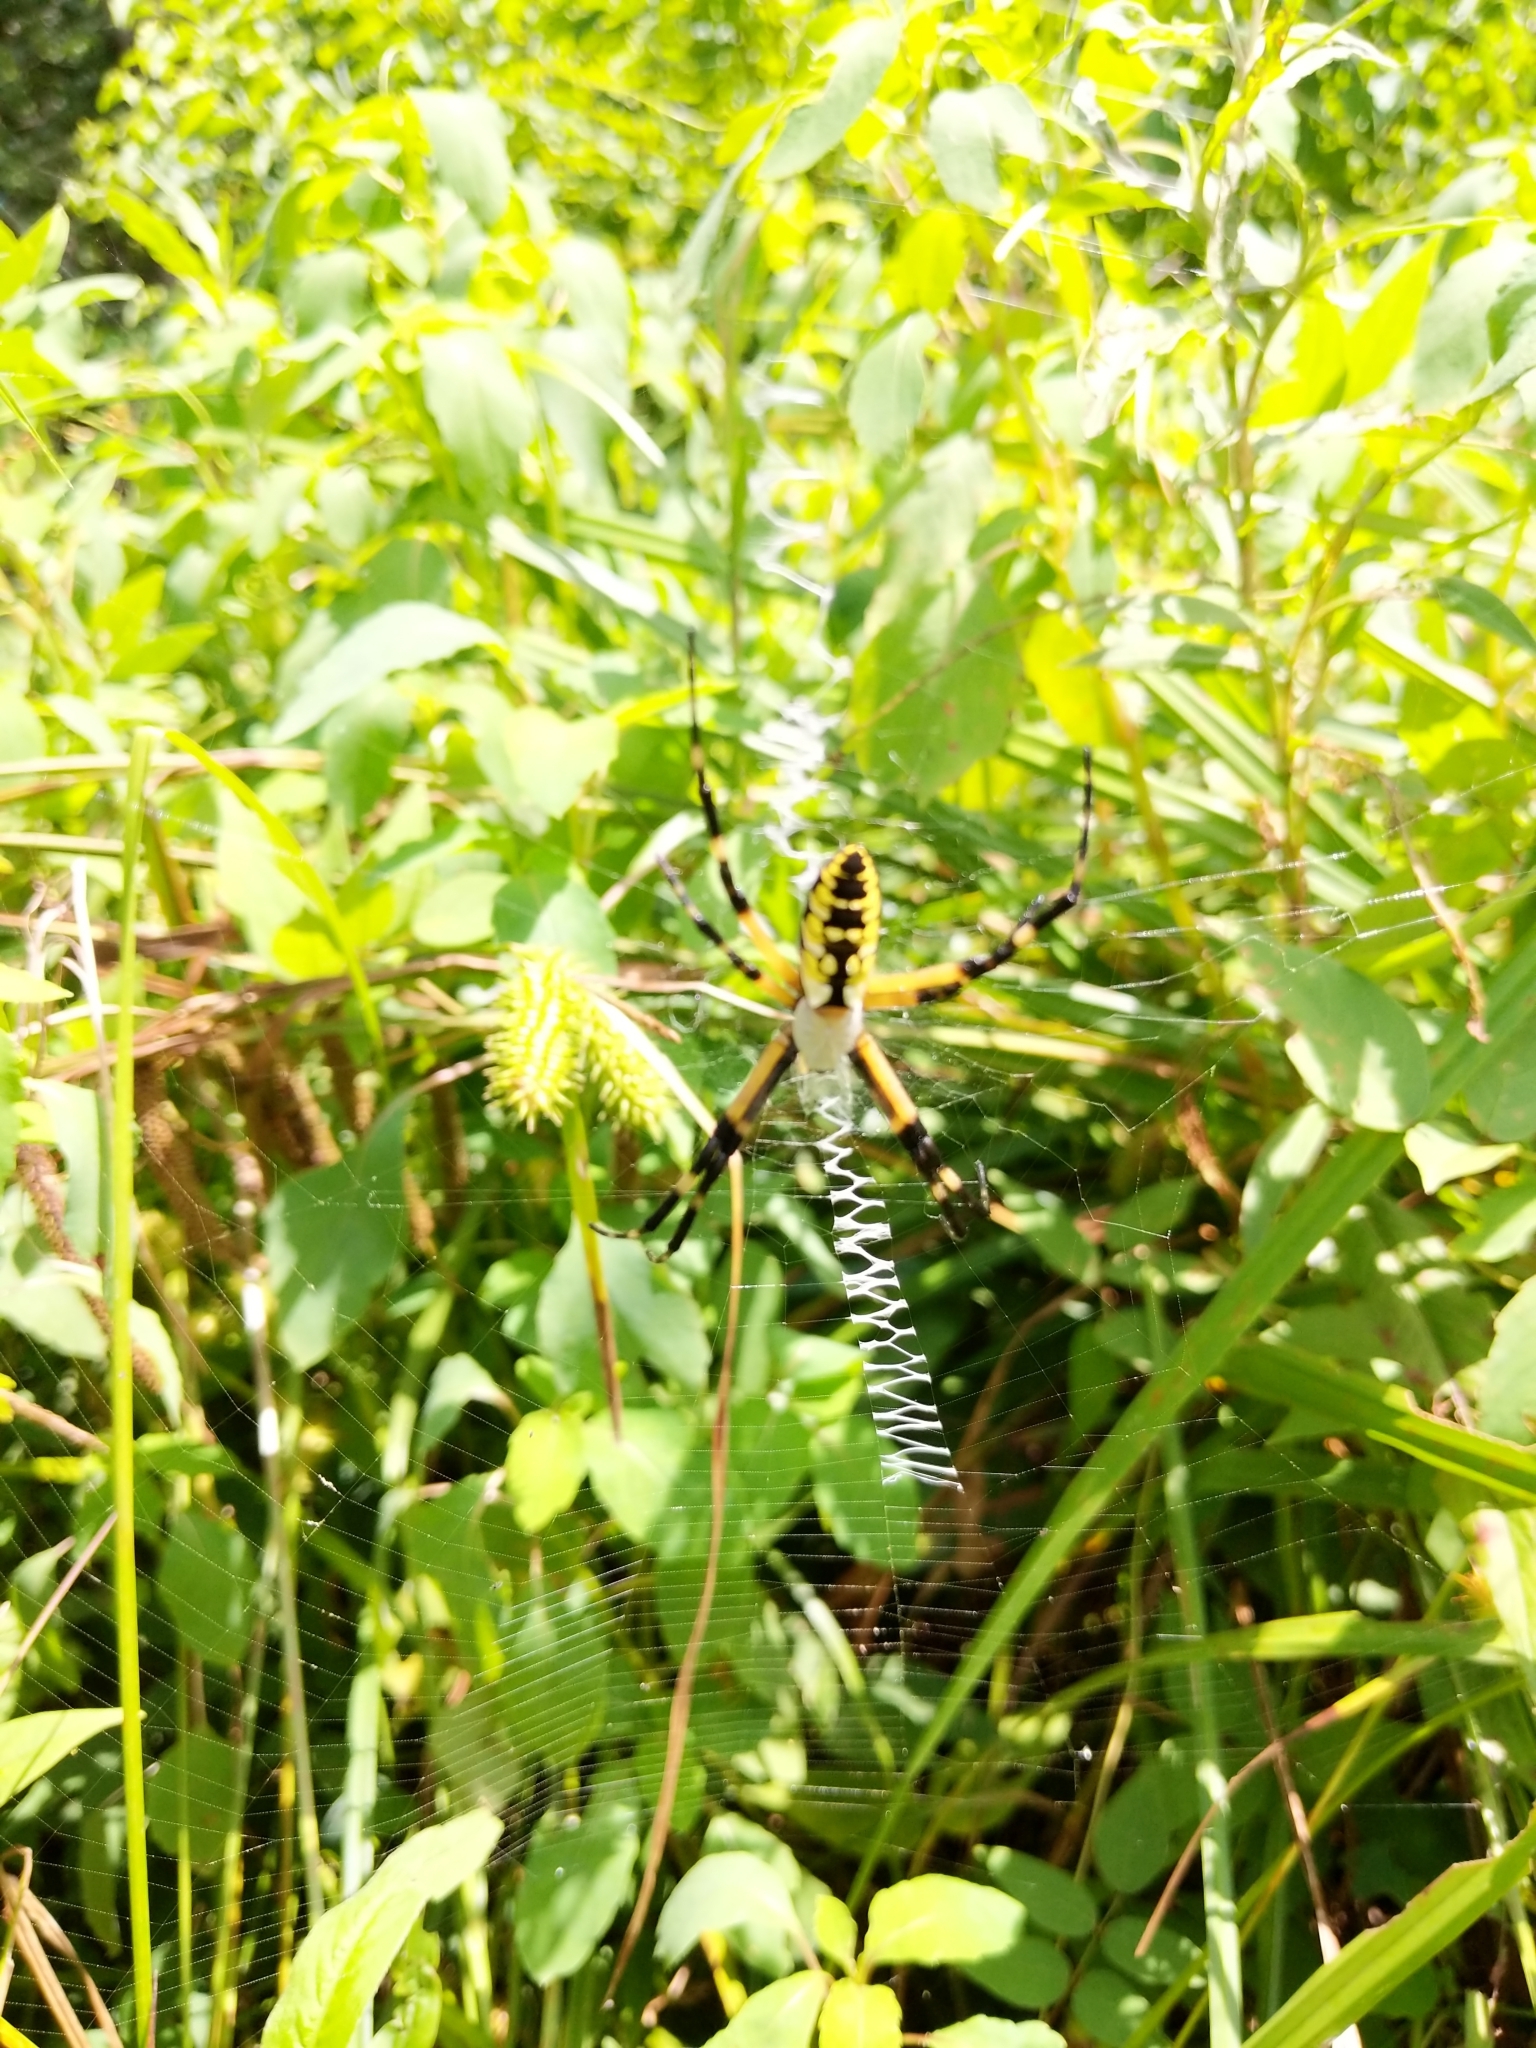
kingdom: Animalia
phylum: Arthropoda
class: Arachnida
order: Araneae
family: Araneidae
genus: Argiope
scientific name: Argiope aurantia
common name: Orb weavers
